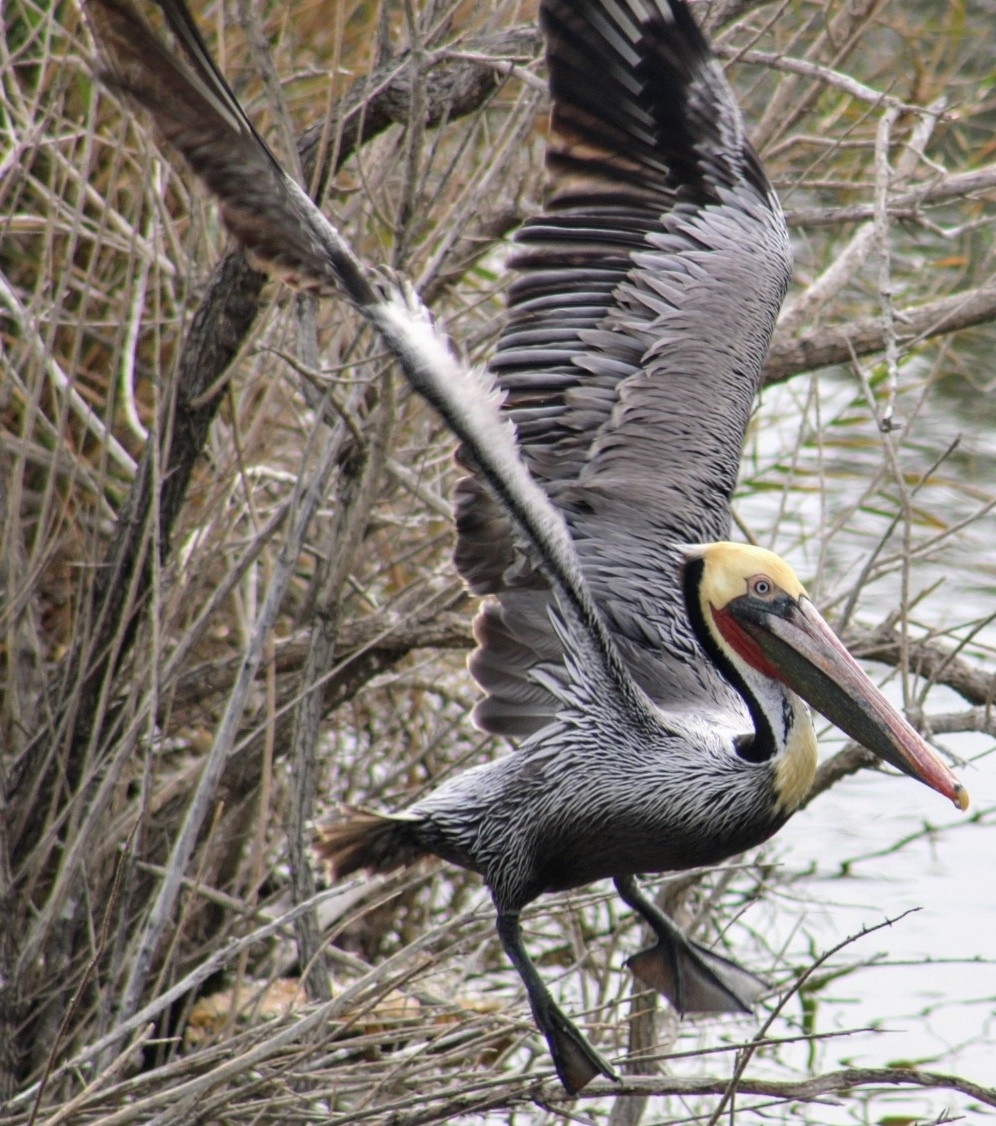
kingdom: Animalia
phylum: Chordata
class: Aves
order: Pelecaniformes
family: Pelecanidae
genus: Pelecanus
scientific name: Pelecanus occidentalis
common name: Brown pelican
